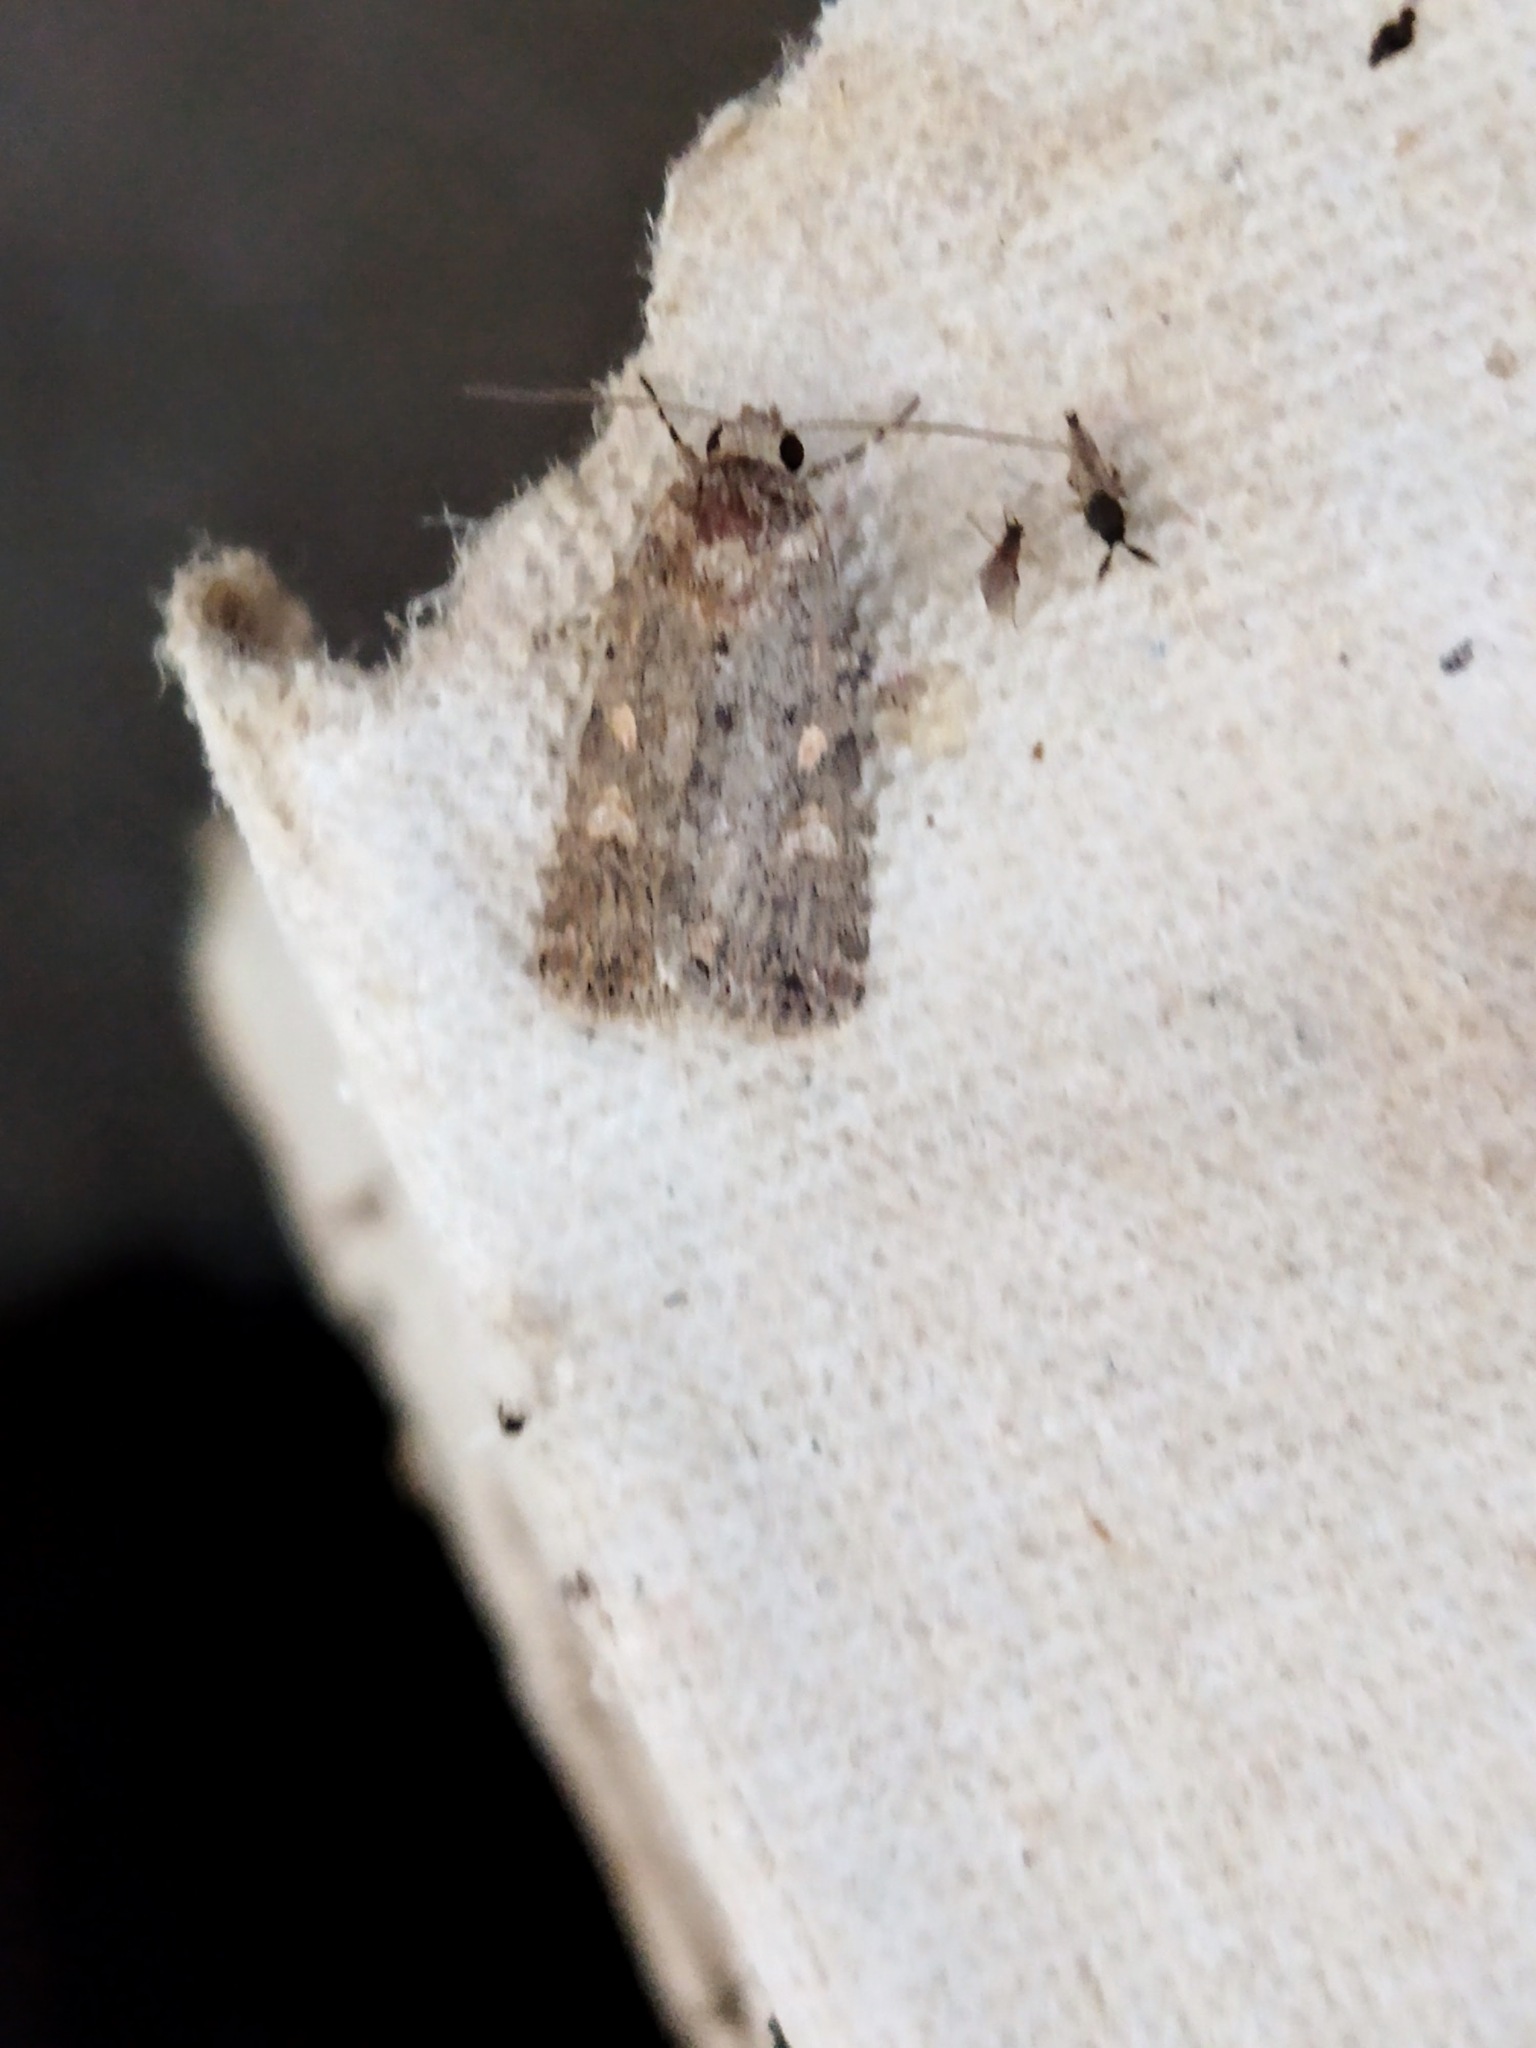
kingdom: Animalia
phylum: Arthropoda
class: Insecta
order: Lepidoptera
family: Noctuidae
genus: Spodoptera
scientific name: Spodoptera cilium
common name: Dark mottled willow
